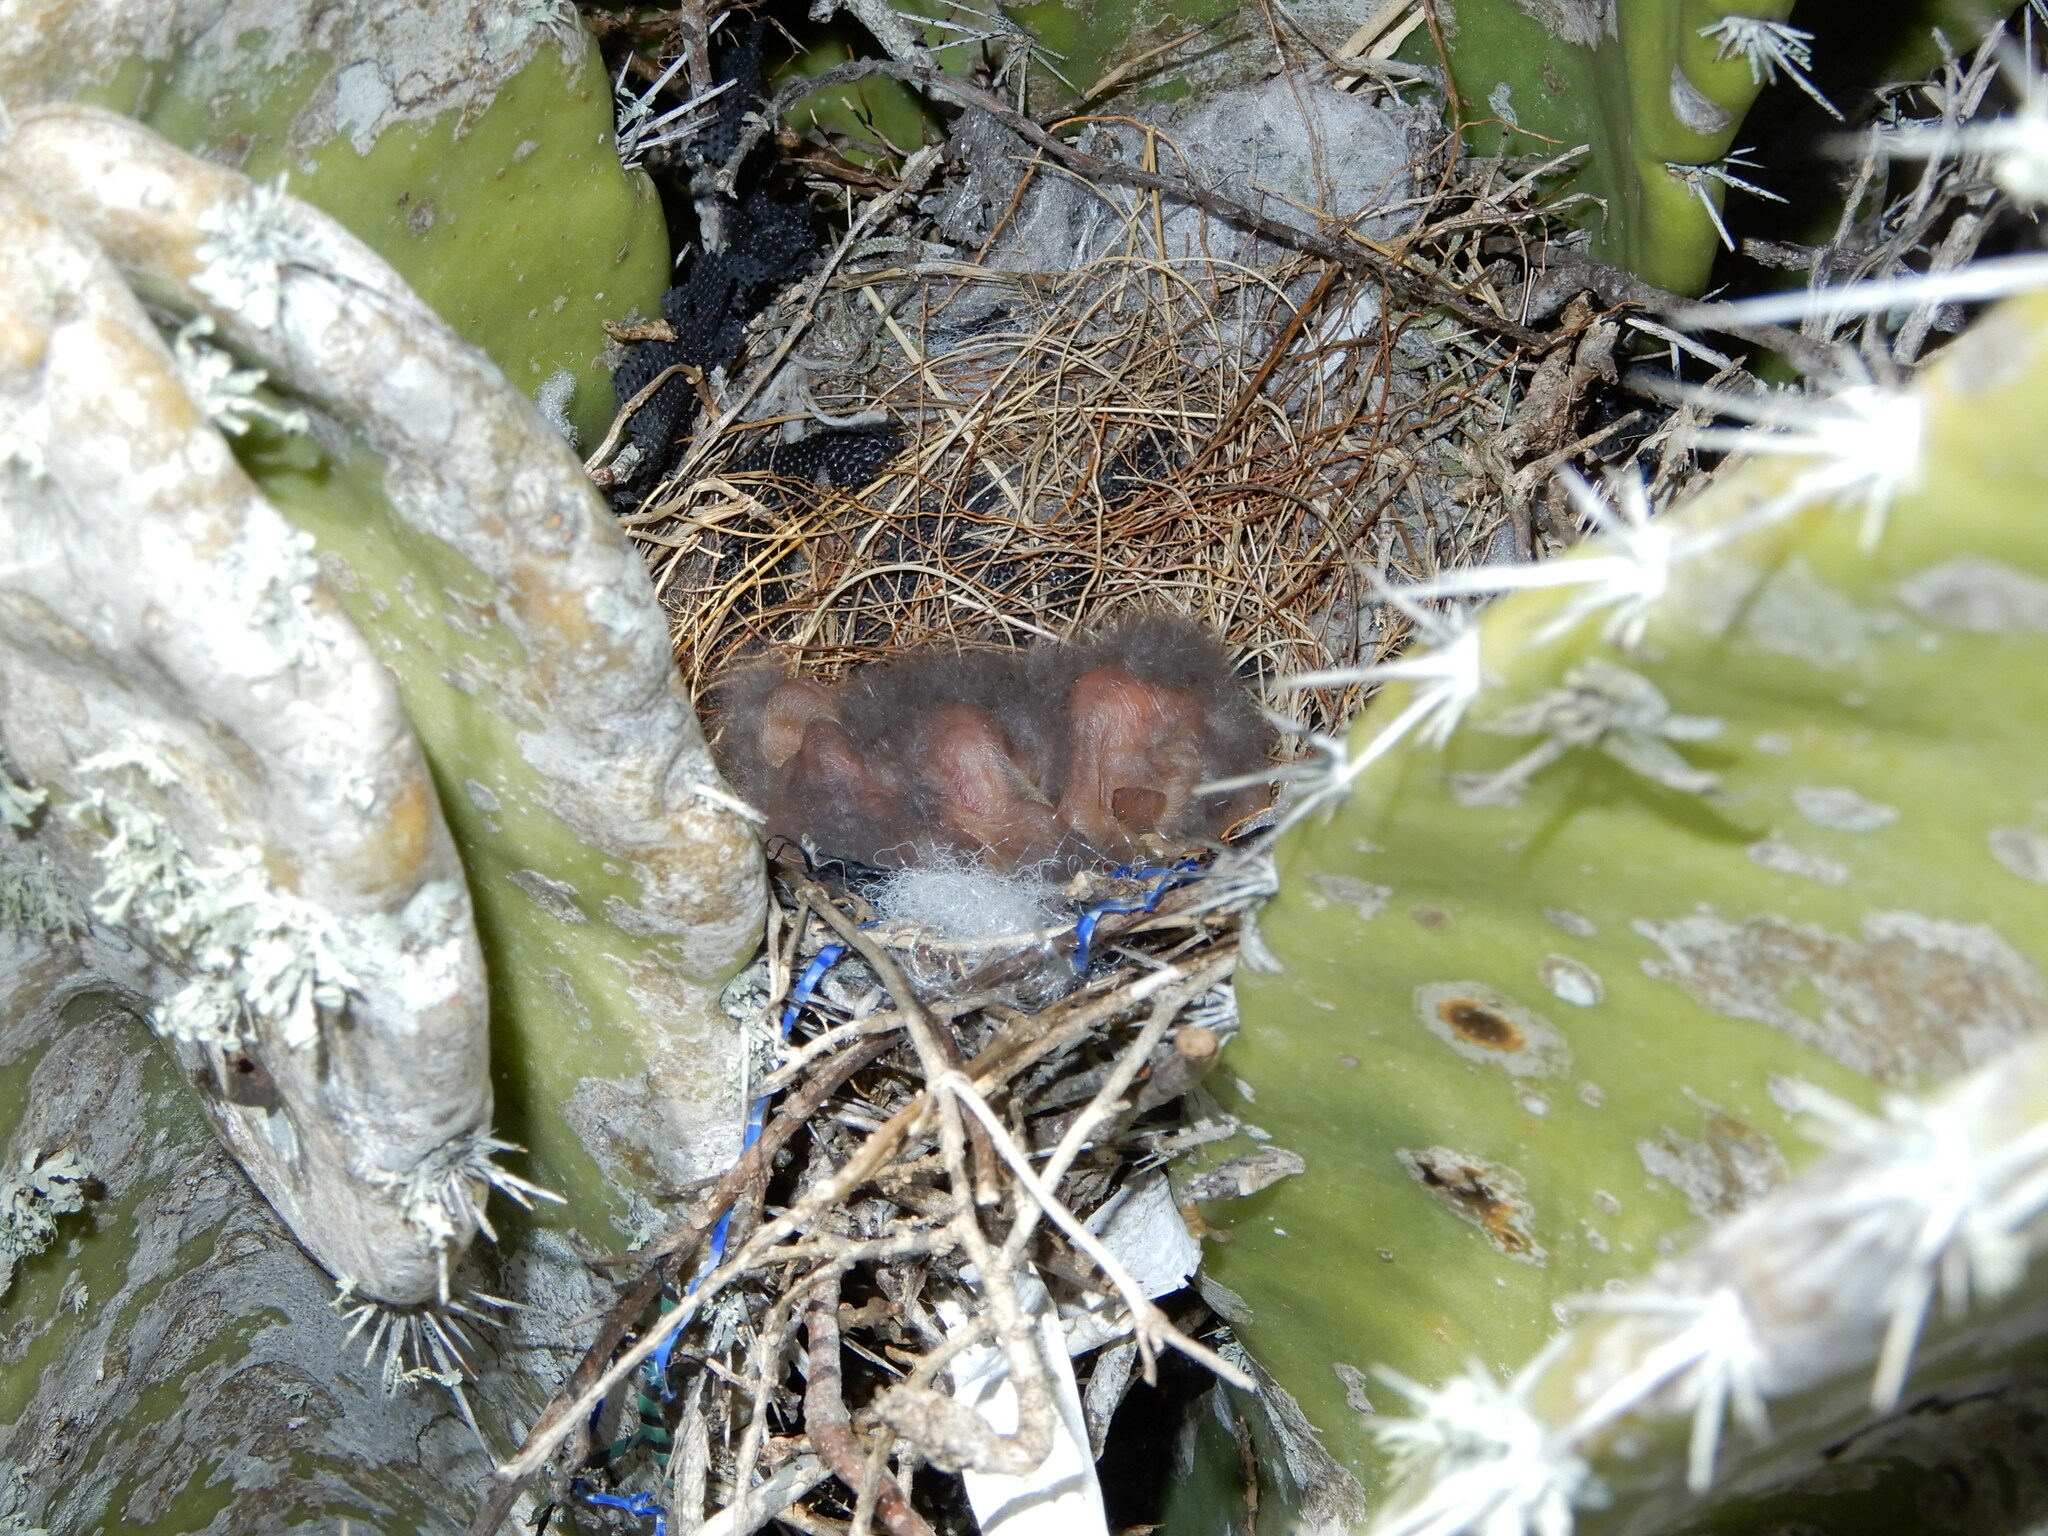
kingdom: Animalia
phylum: Chordata
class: Aves
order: Passeriformes
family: Mimidae
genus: Mimus
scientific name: Mimus polyglottos
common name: Northern mockingbird
